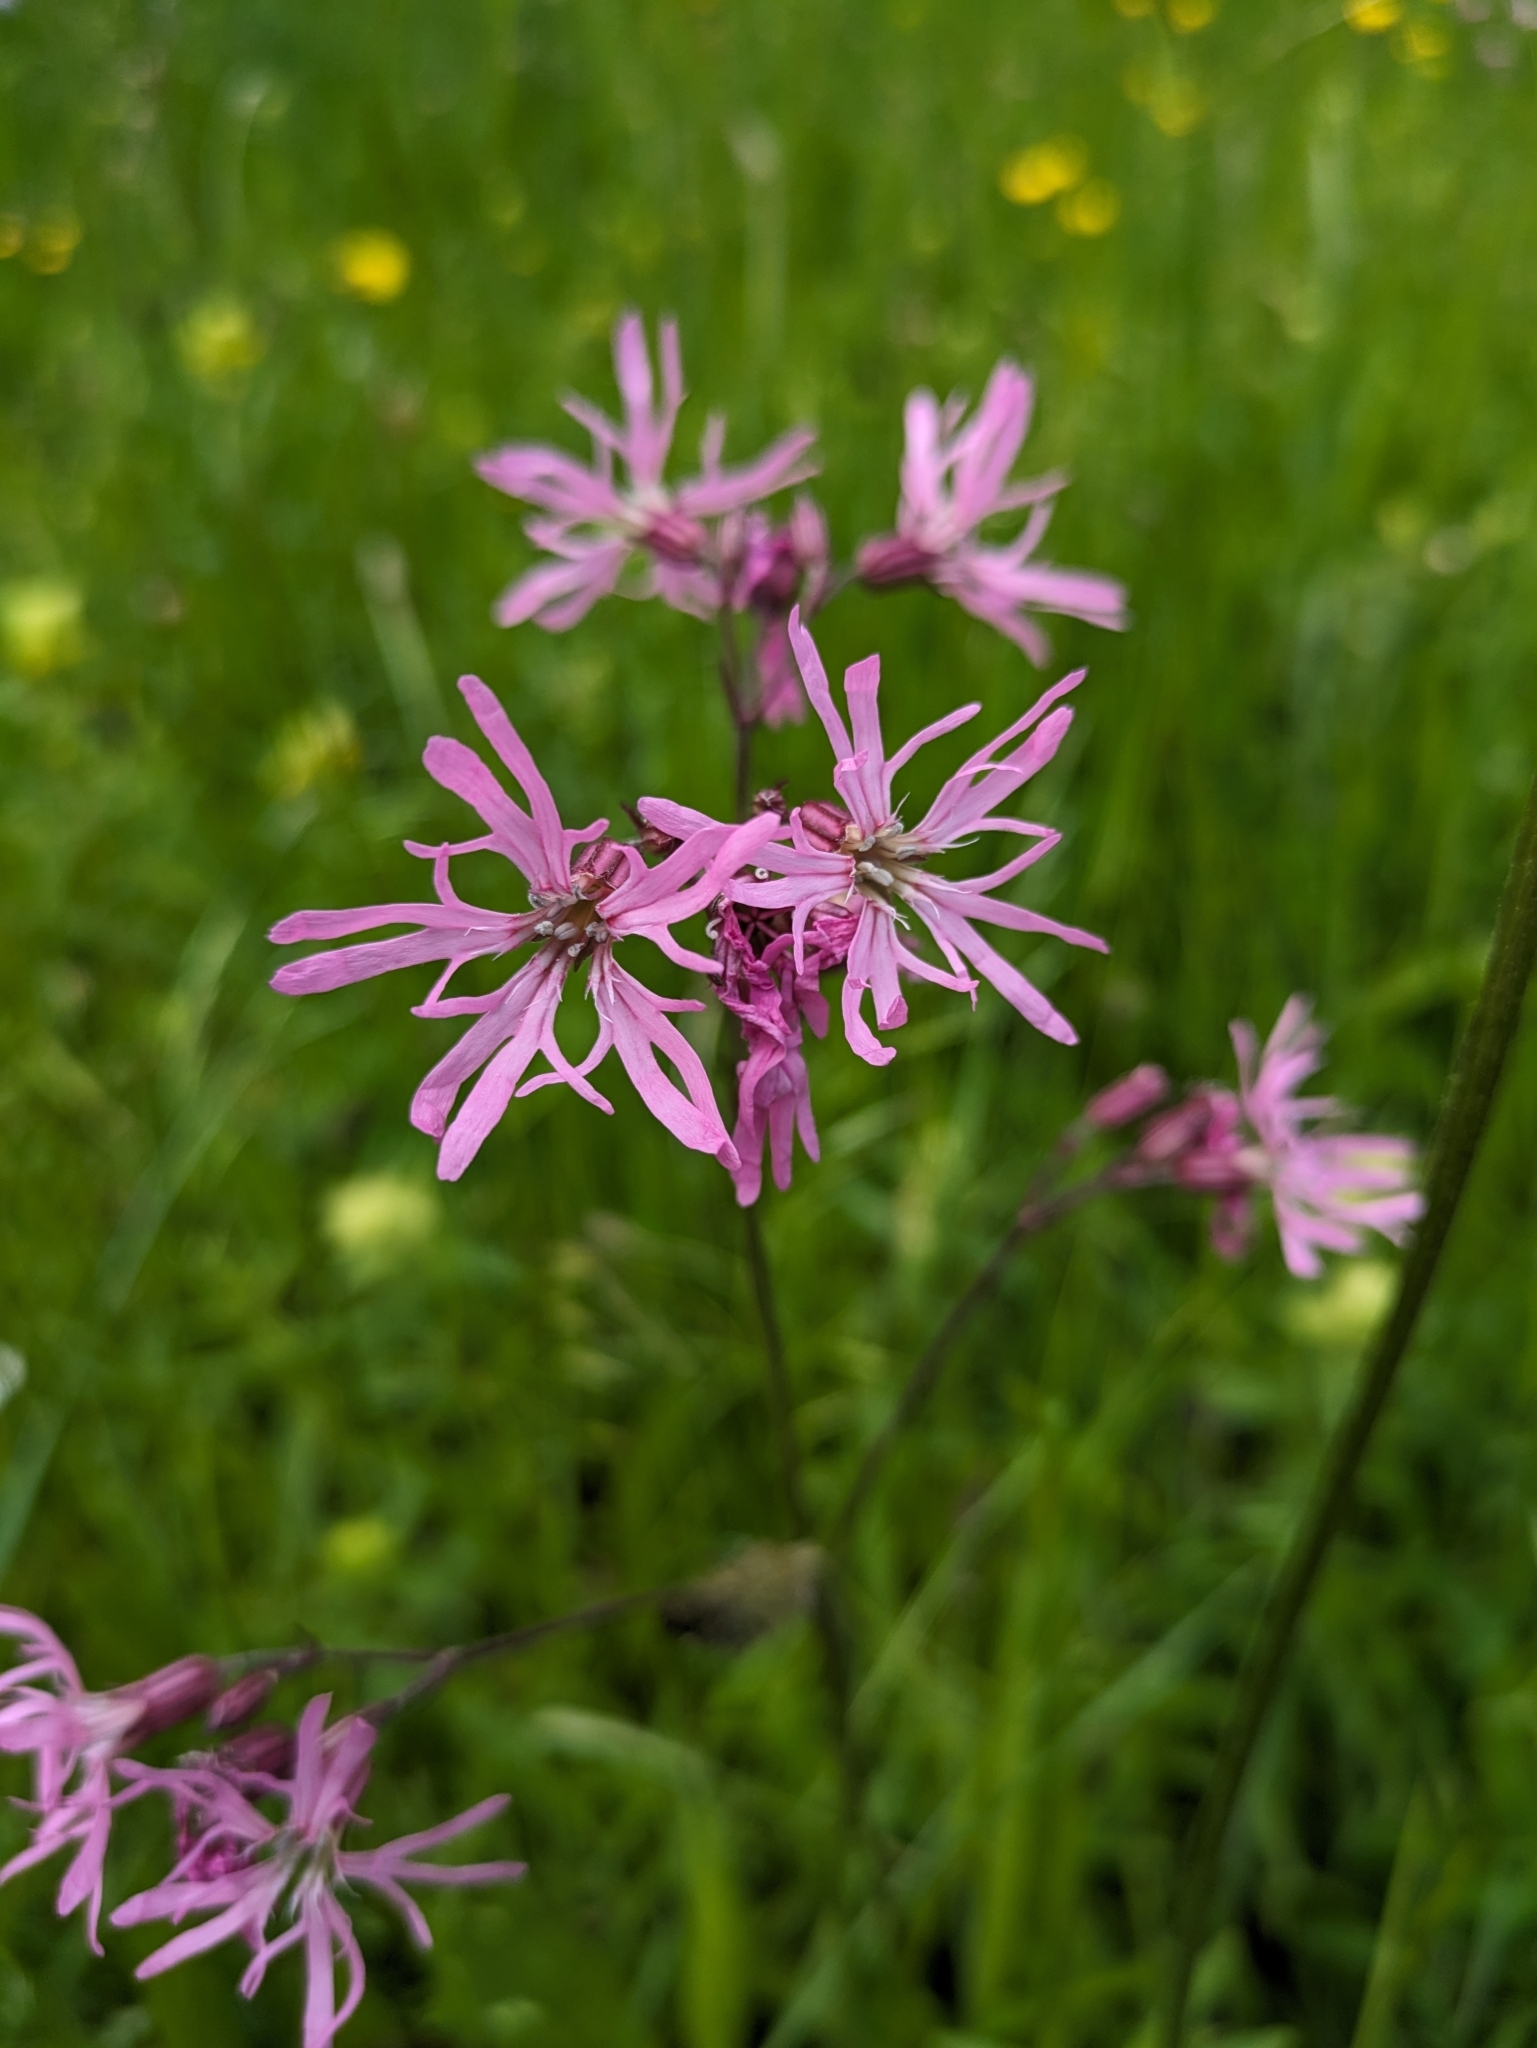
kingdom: Plantae
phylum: Tracheophyta
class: Magnoliopsida
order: Caryophyllales
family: Caryophyllaceae
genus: Silene
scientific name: Silene flos-cuculi
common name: Ragged-robin
